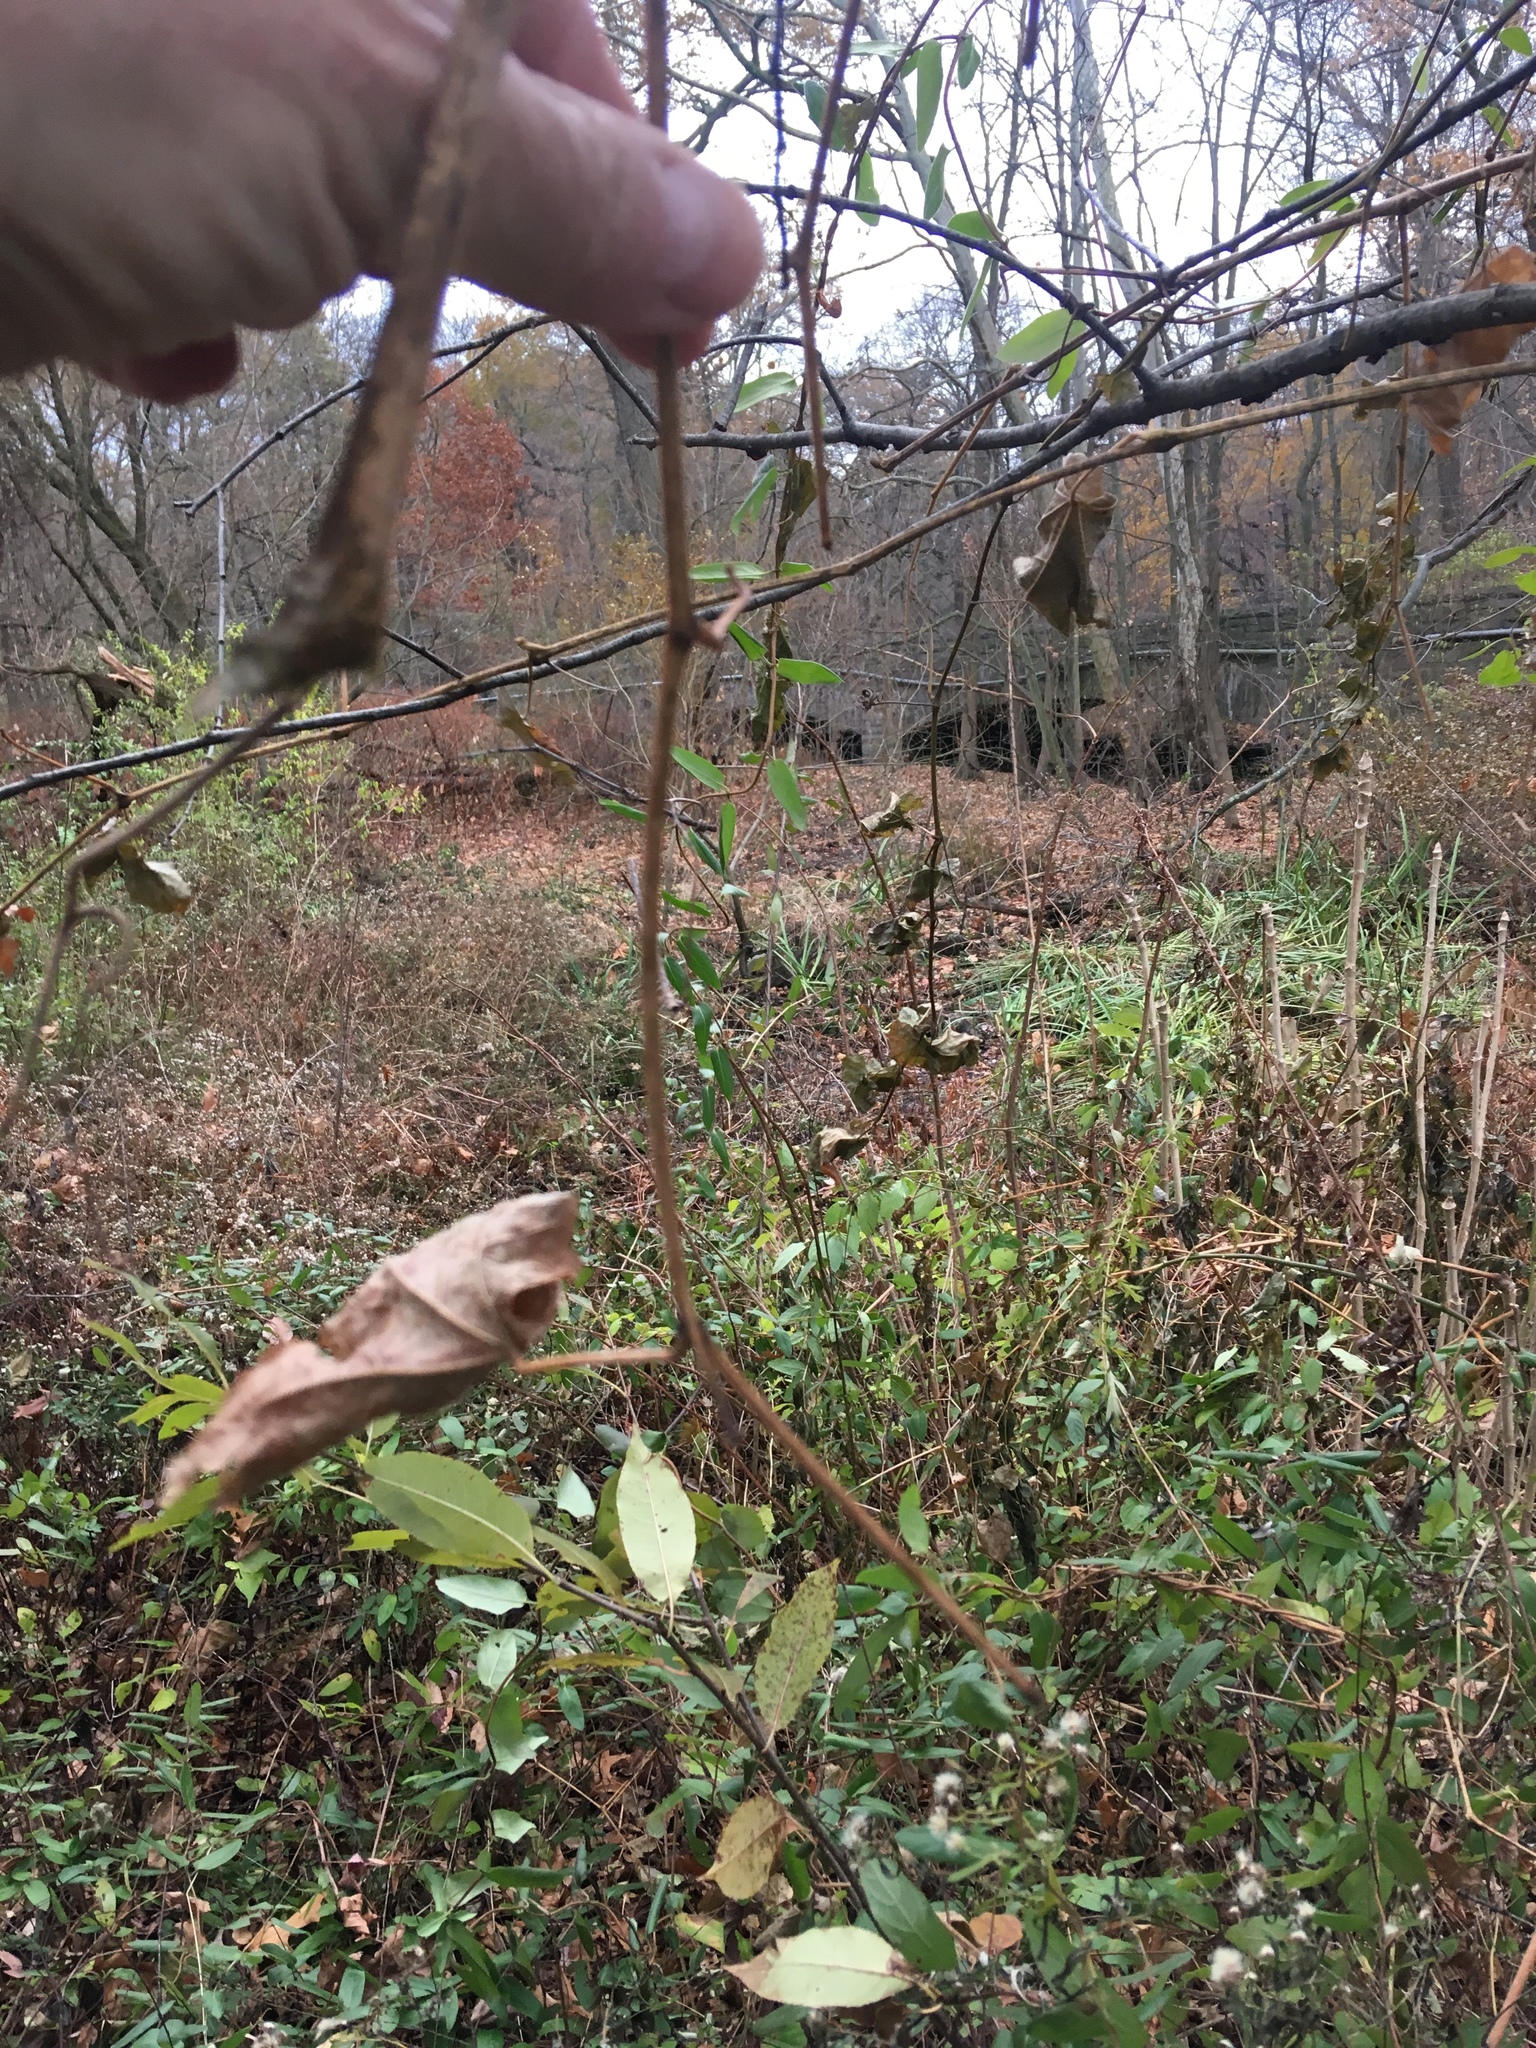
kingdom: Plantae
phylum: Tracheophyta
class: Magnoliopsida
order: Vitales
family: Vitaceae
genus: Ampelopsis
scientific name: Ampelopsis glandulosa
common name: Amur peppervine
